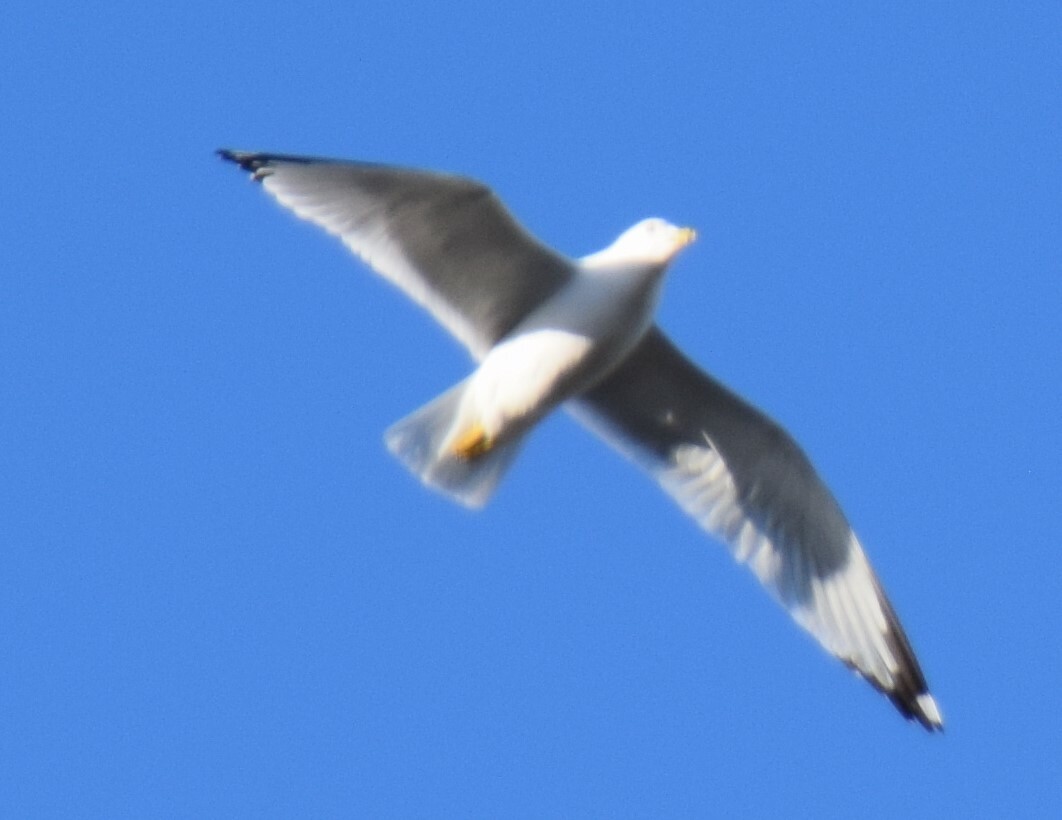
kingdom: Animalia
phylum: Chordata
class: Aves
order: Charadriiformes
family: Laridae
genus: Larus
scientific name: Larus delawarensis
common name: Ring-billed gull
